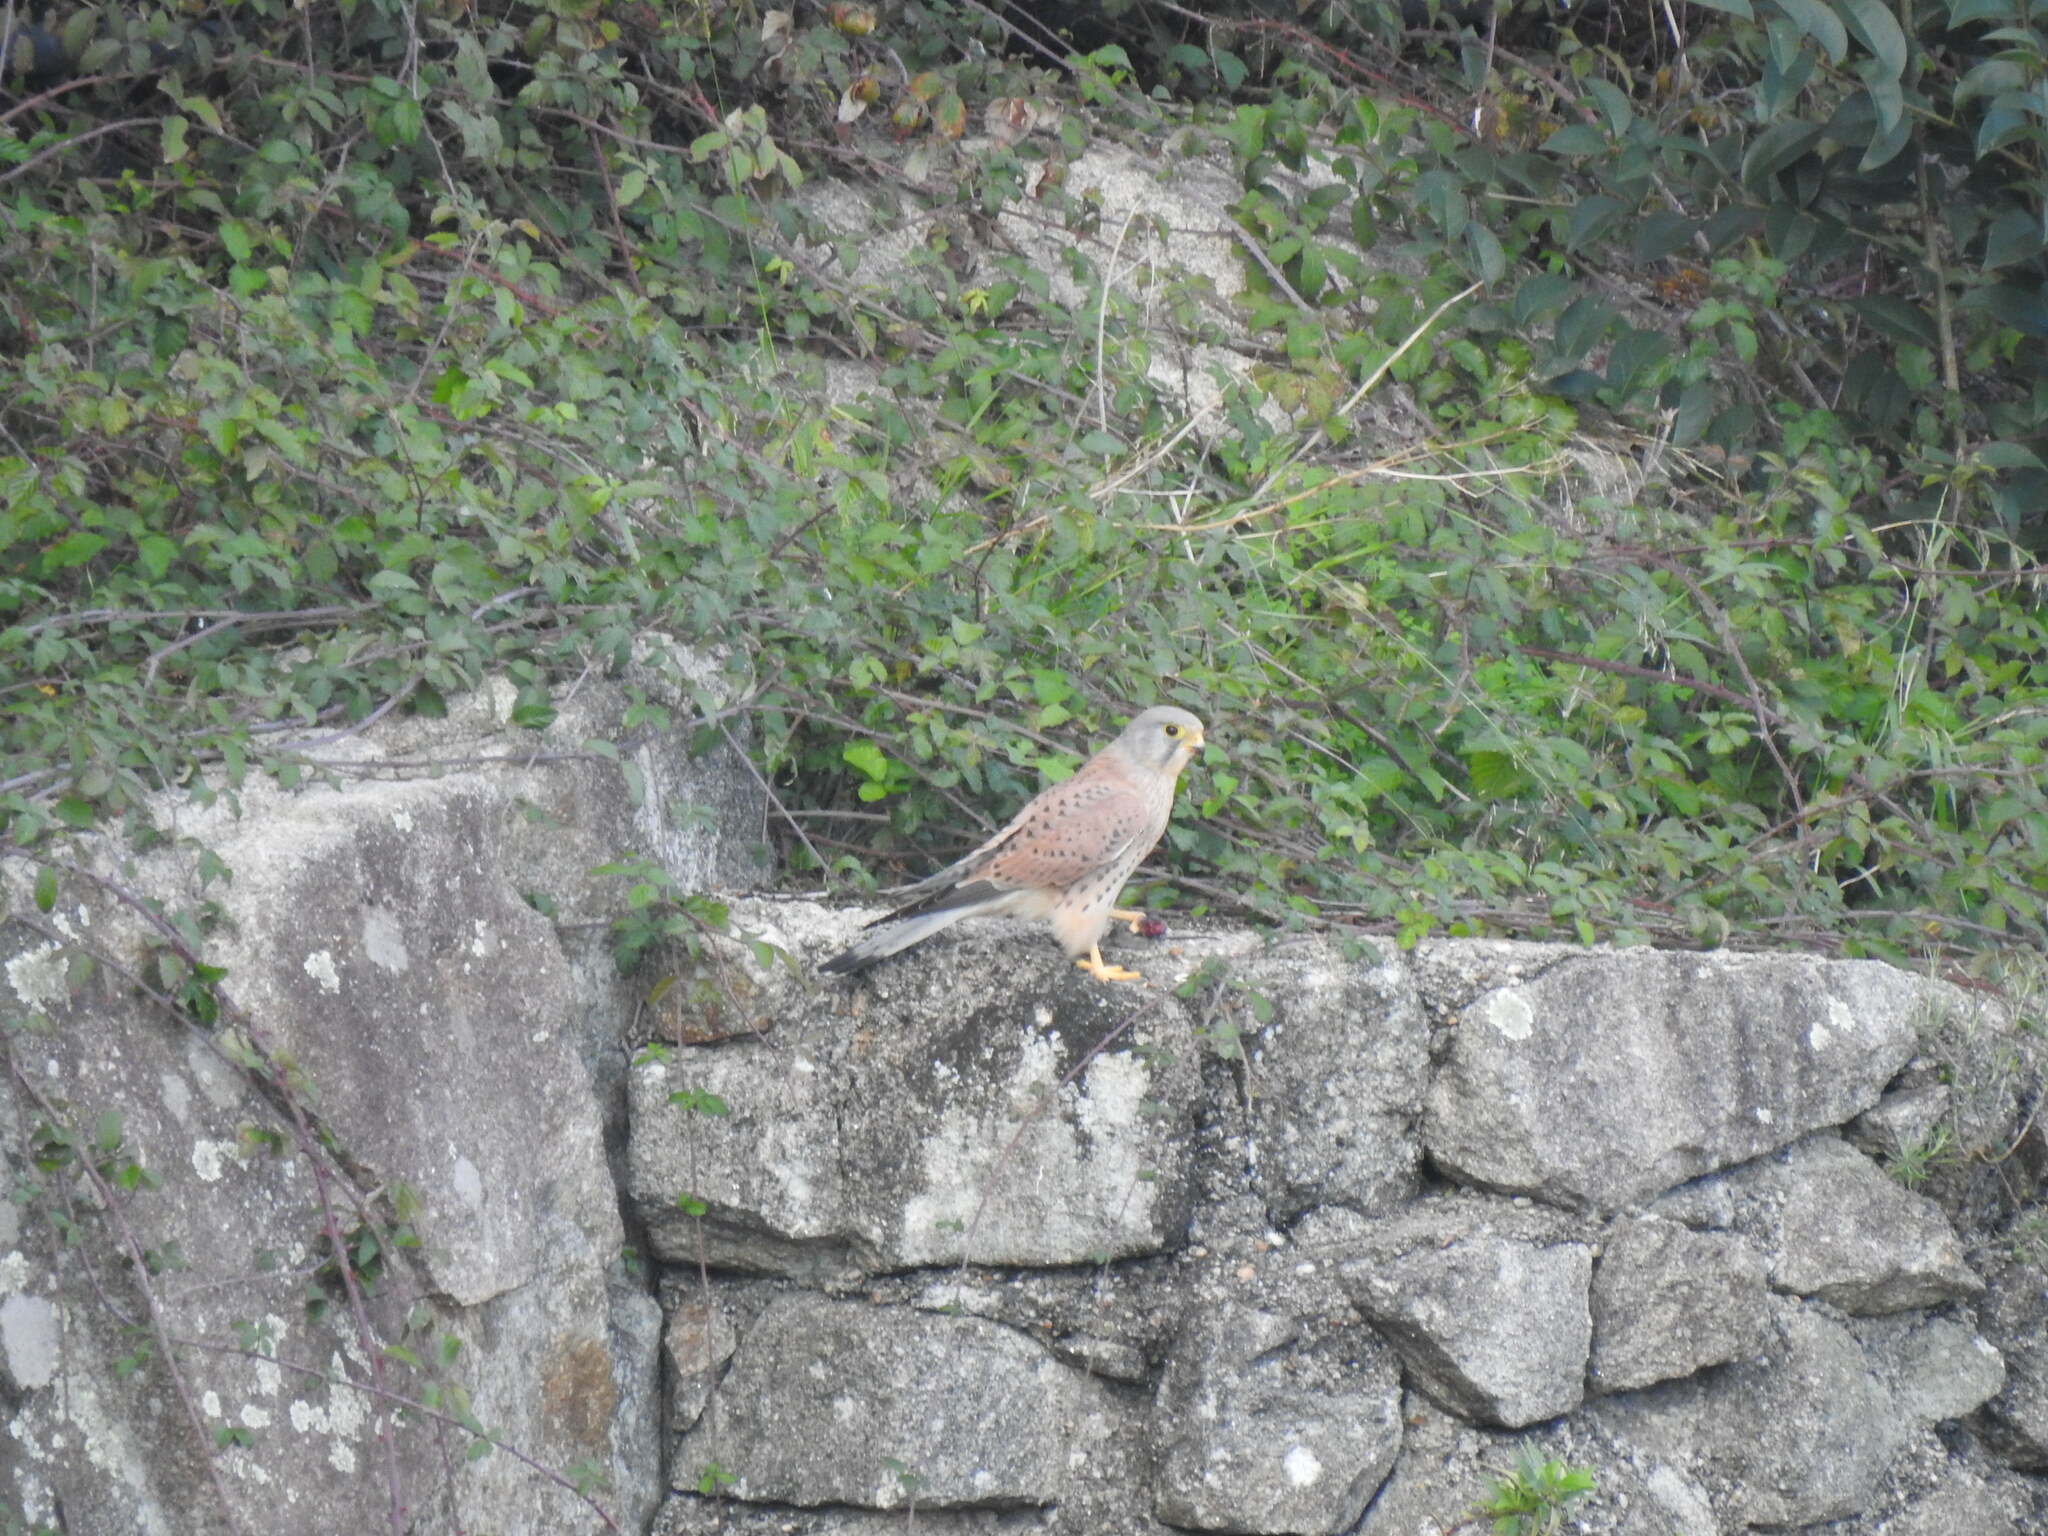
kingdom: Animalia
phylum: Chordata
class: Aves
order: Falconiformes
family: Falconidae
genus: Falco
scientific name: Falco tinnunculus
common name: Common kestrel
